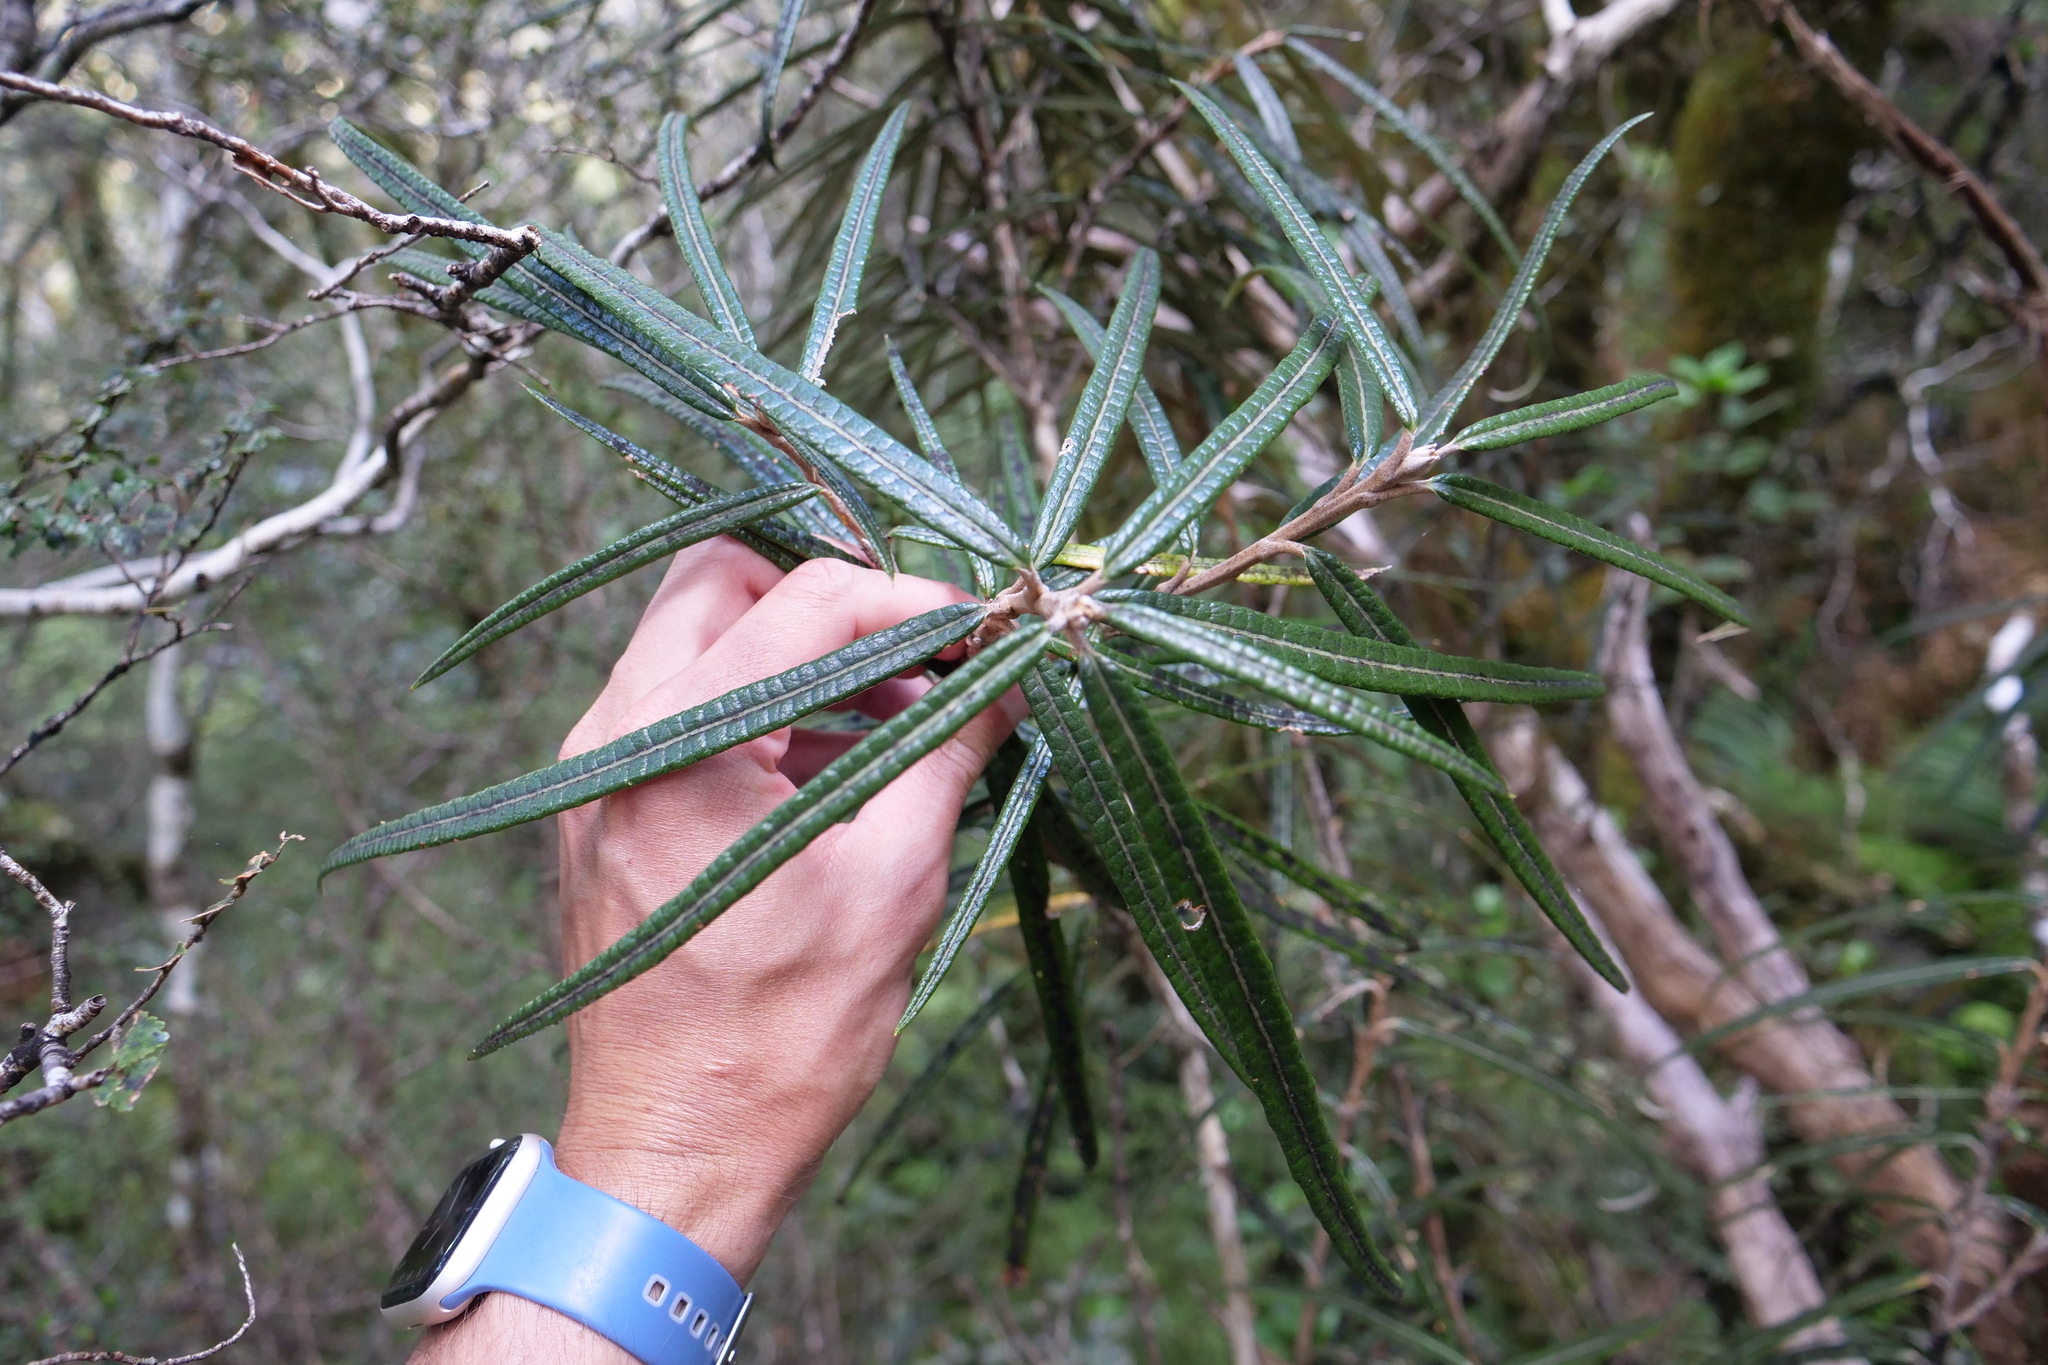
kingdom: Plantae
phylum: Tracheophyta
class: Magnoliopsida
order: Asterales
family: Asteraceae
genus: Olearia
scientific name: Olearia lacunosa
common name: Lancewood tree daisy
